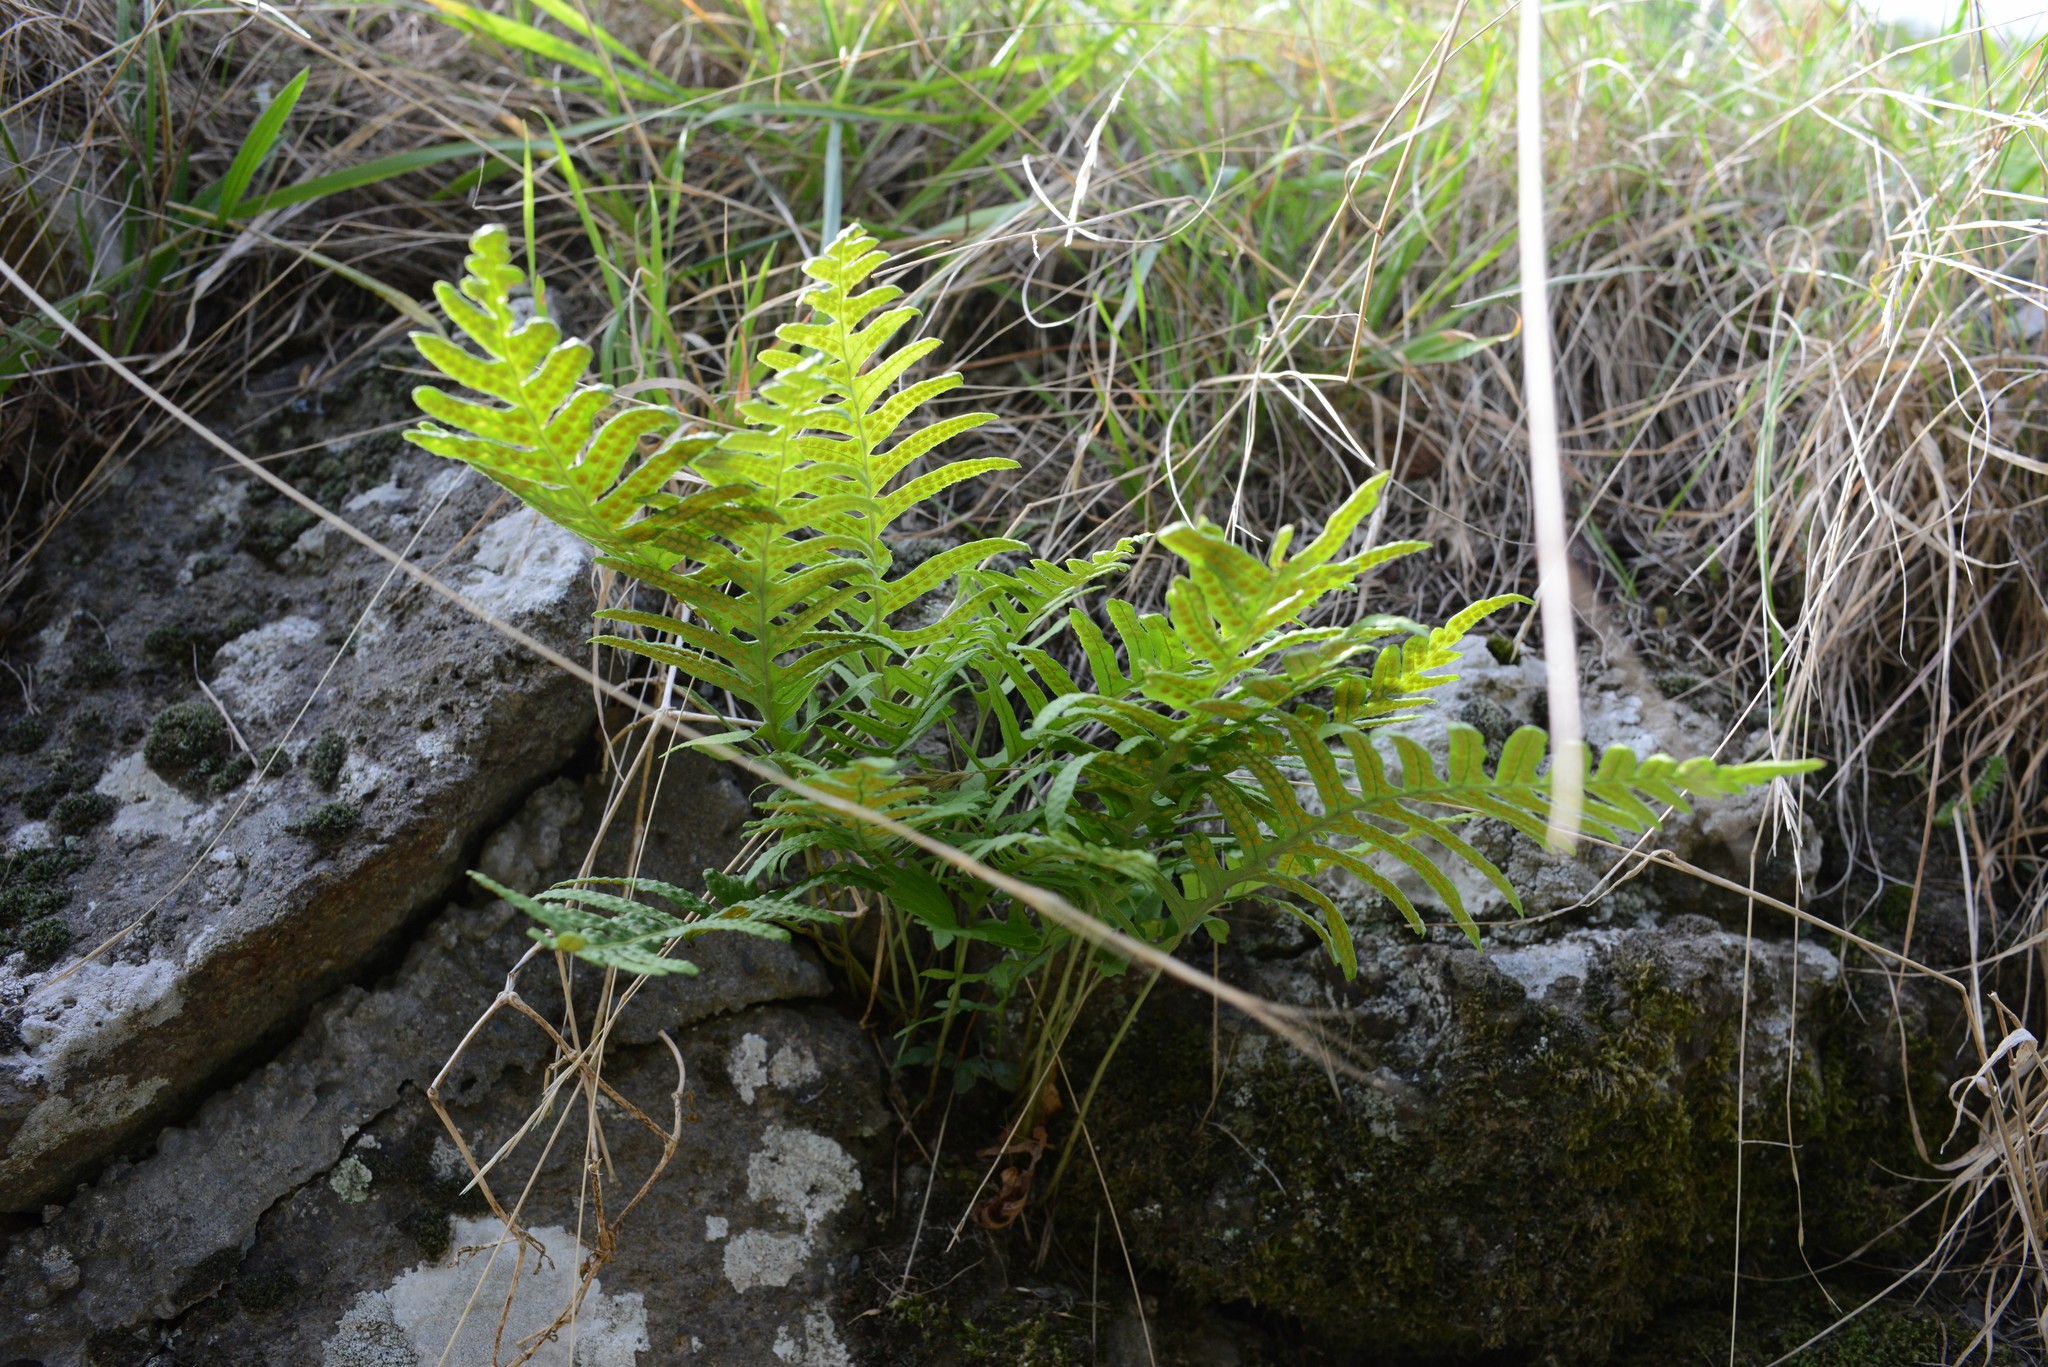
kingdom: Plantae
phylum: Tracheophyta
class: Polypodiopsida
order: Polypodiales
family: Polypodiaceae
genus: Polypodium
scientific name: Polypodium vulgare
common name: Common polypody
